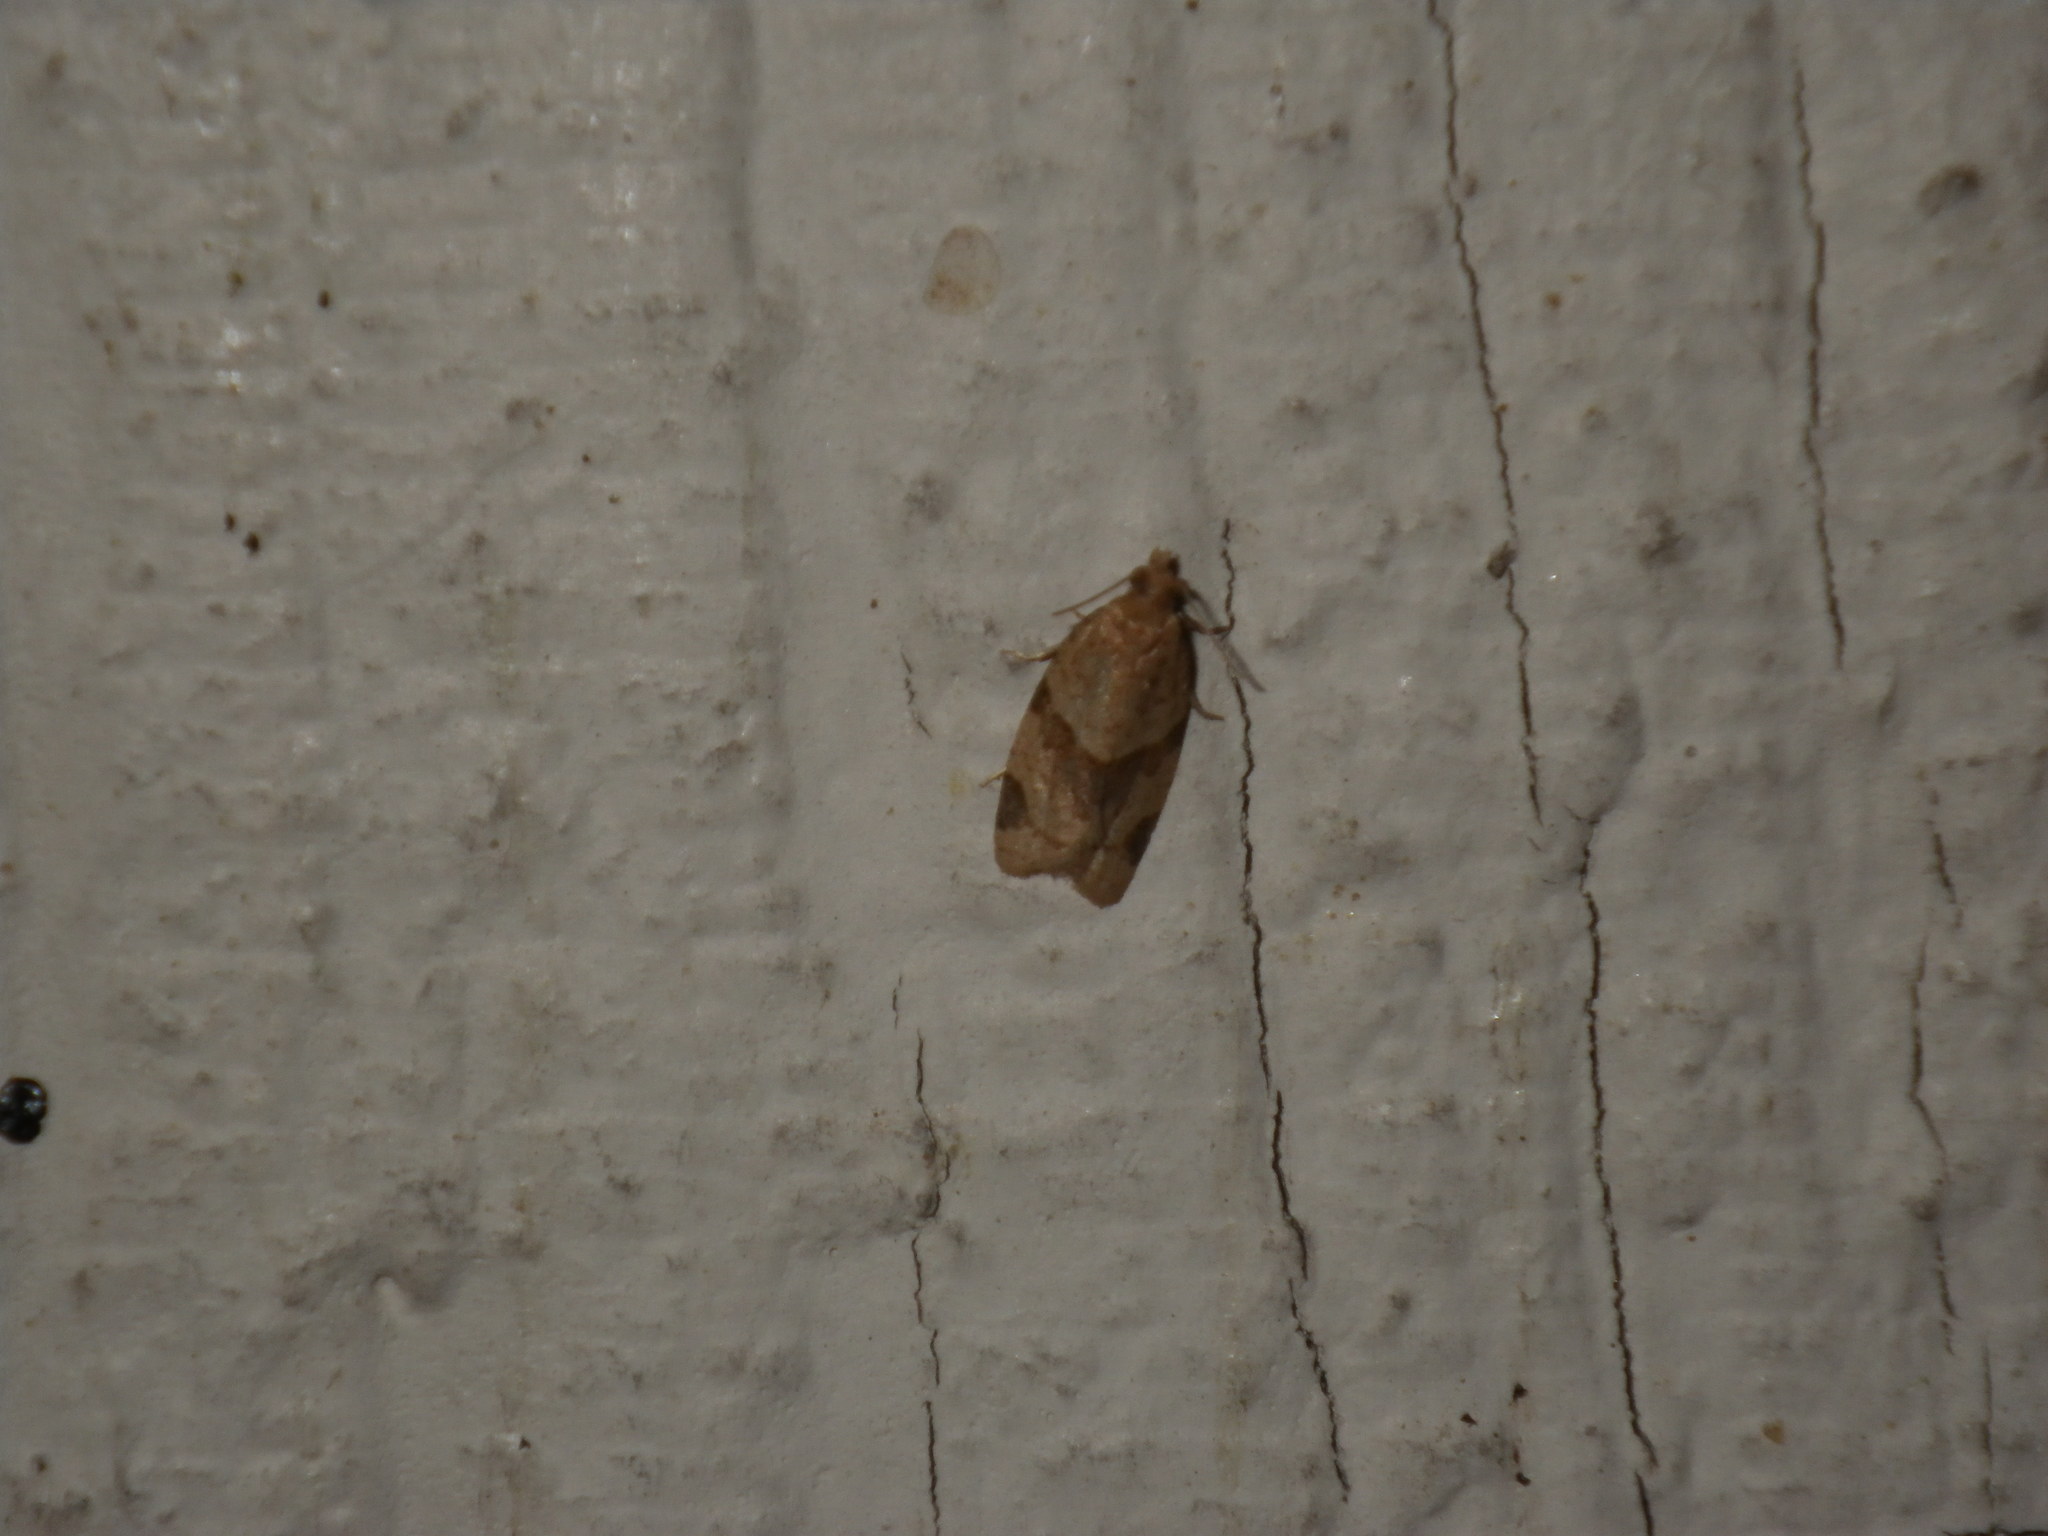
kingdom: Animalia
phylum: Arthropoda
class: Insecta
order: Lepidoptera
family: Tortricidae
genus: Clepsis
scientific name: Clepsis peritana
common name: Garden tortrix
